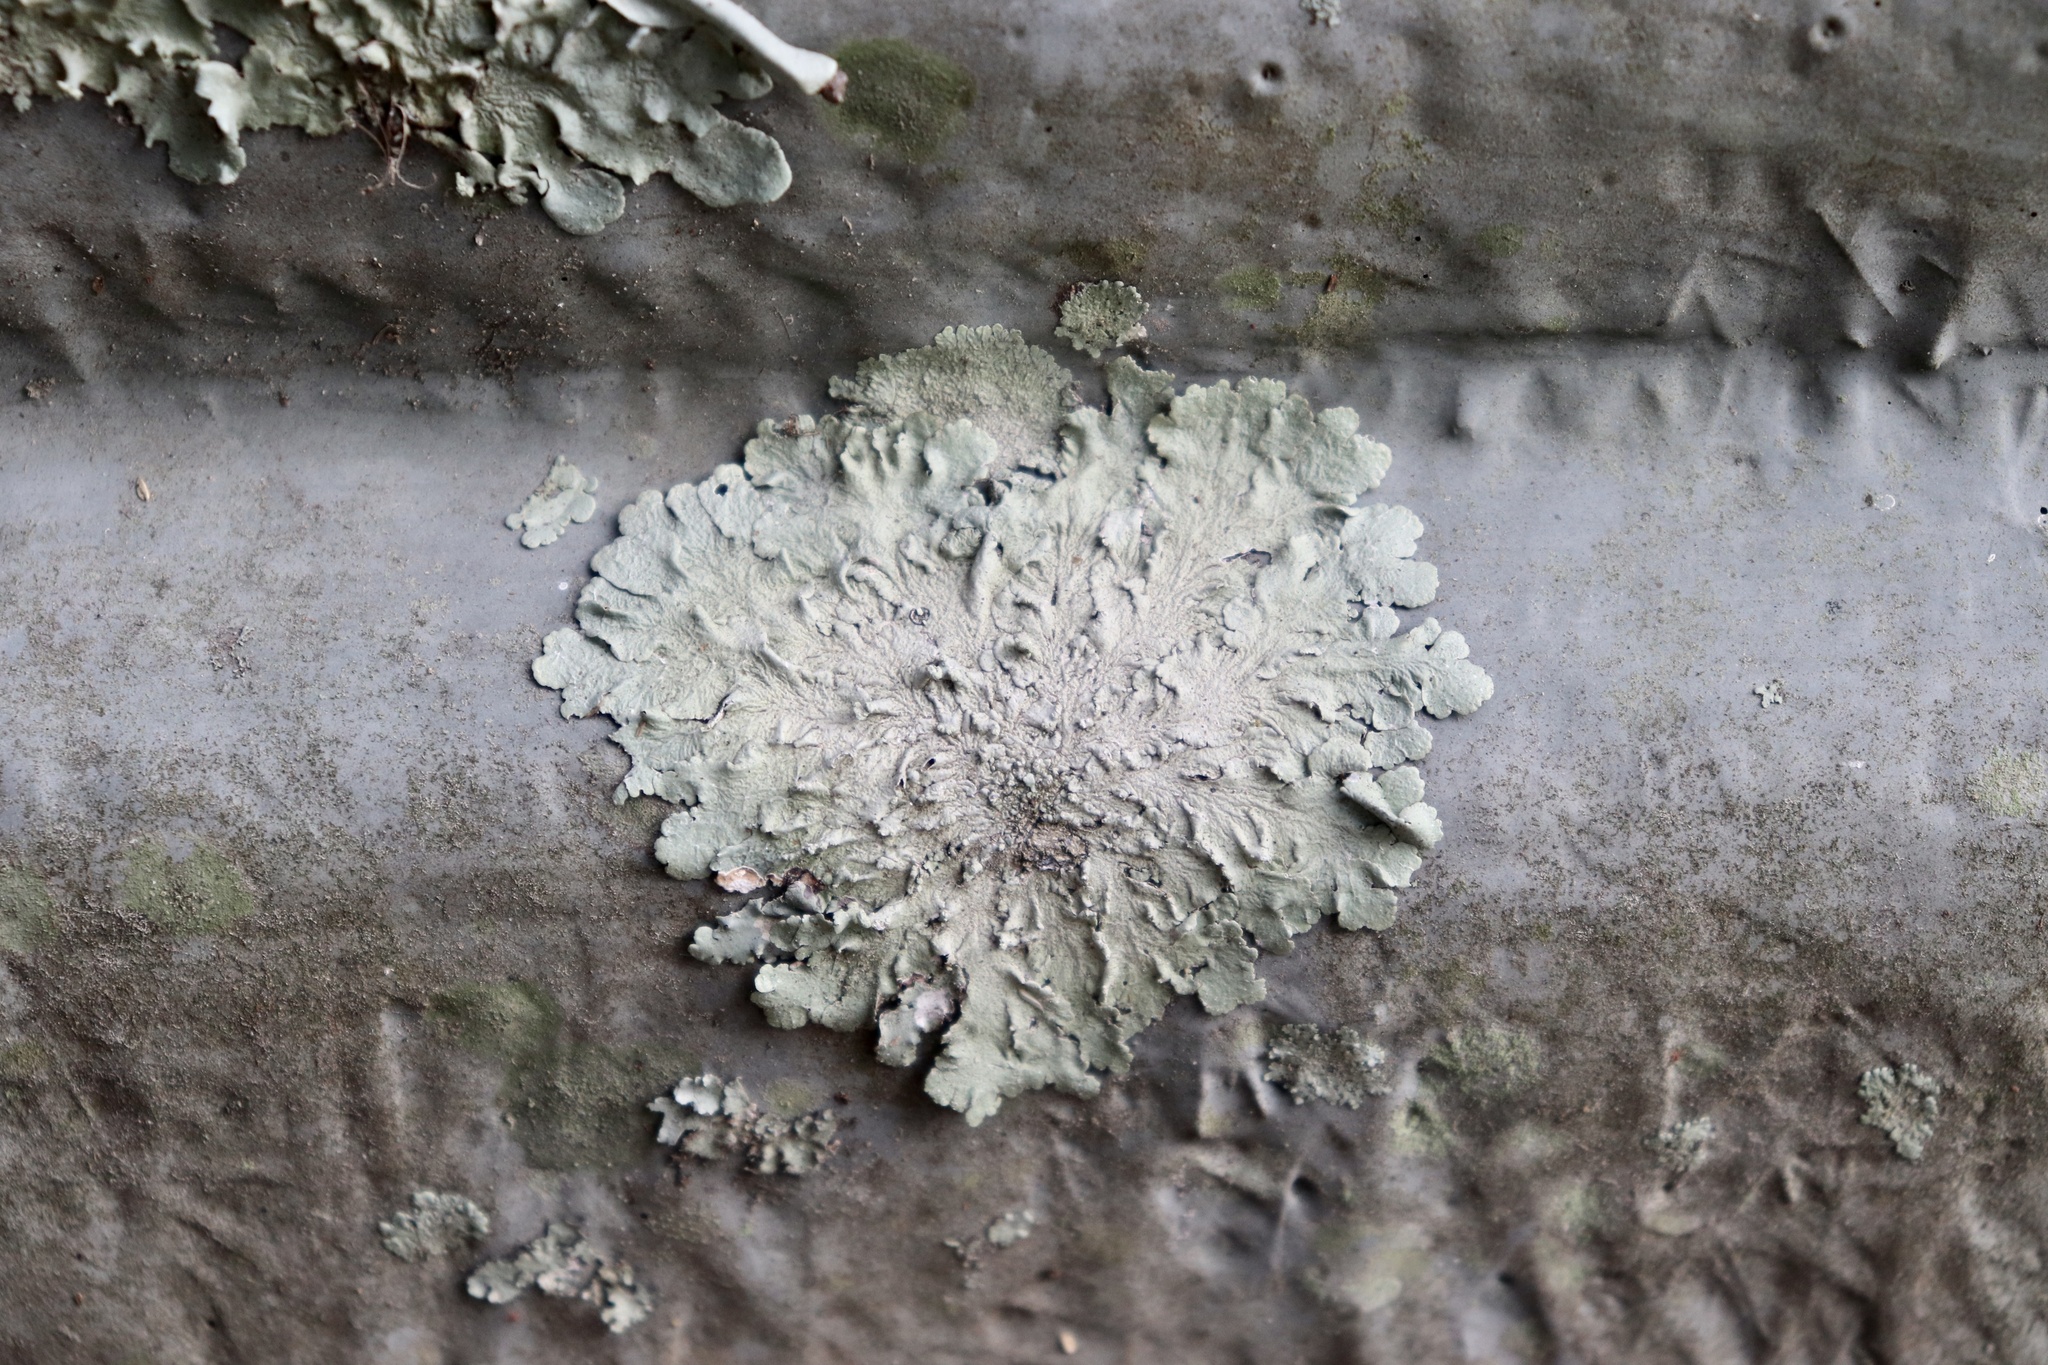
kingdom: Fungi
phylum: Ascomycota
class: Lecanoromycetes
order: Lecanorales
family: Parmeliaceae
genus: Canoparmelia
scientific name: Canoparmelia cryptochlorophaea
